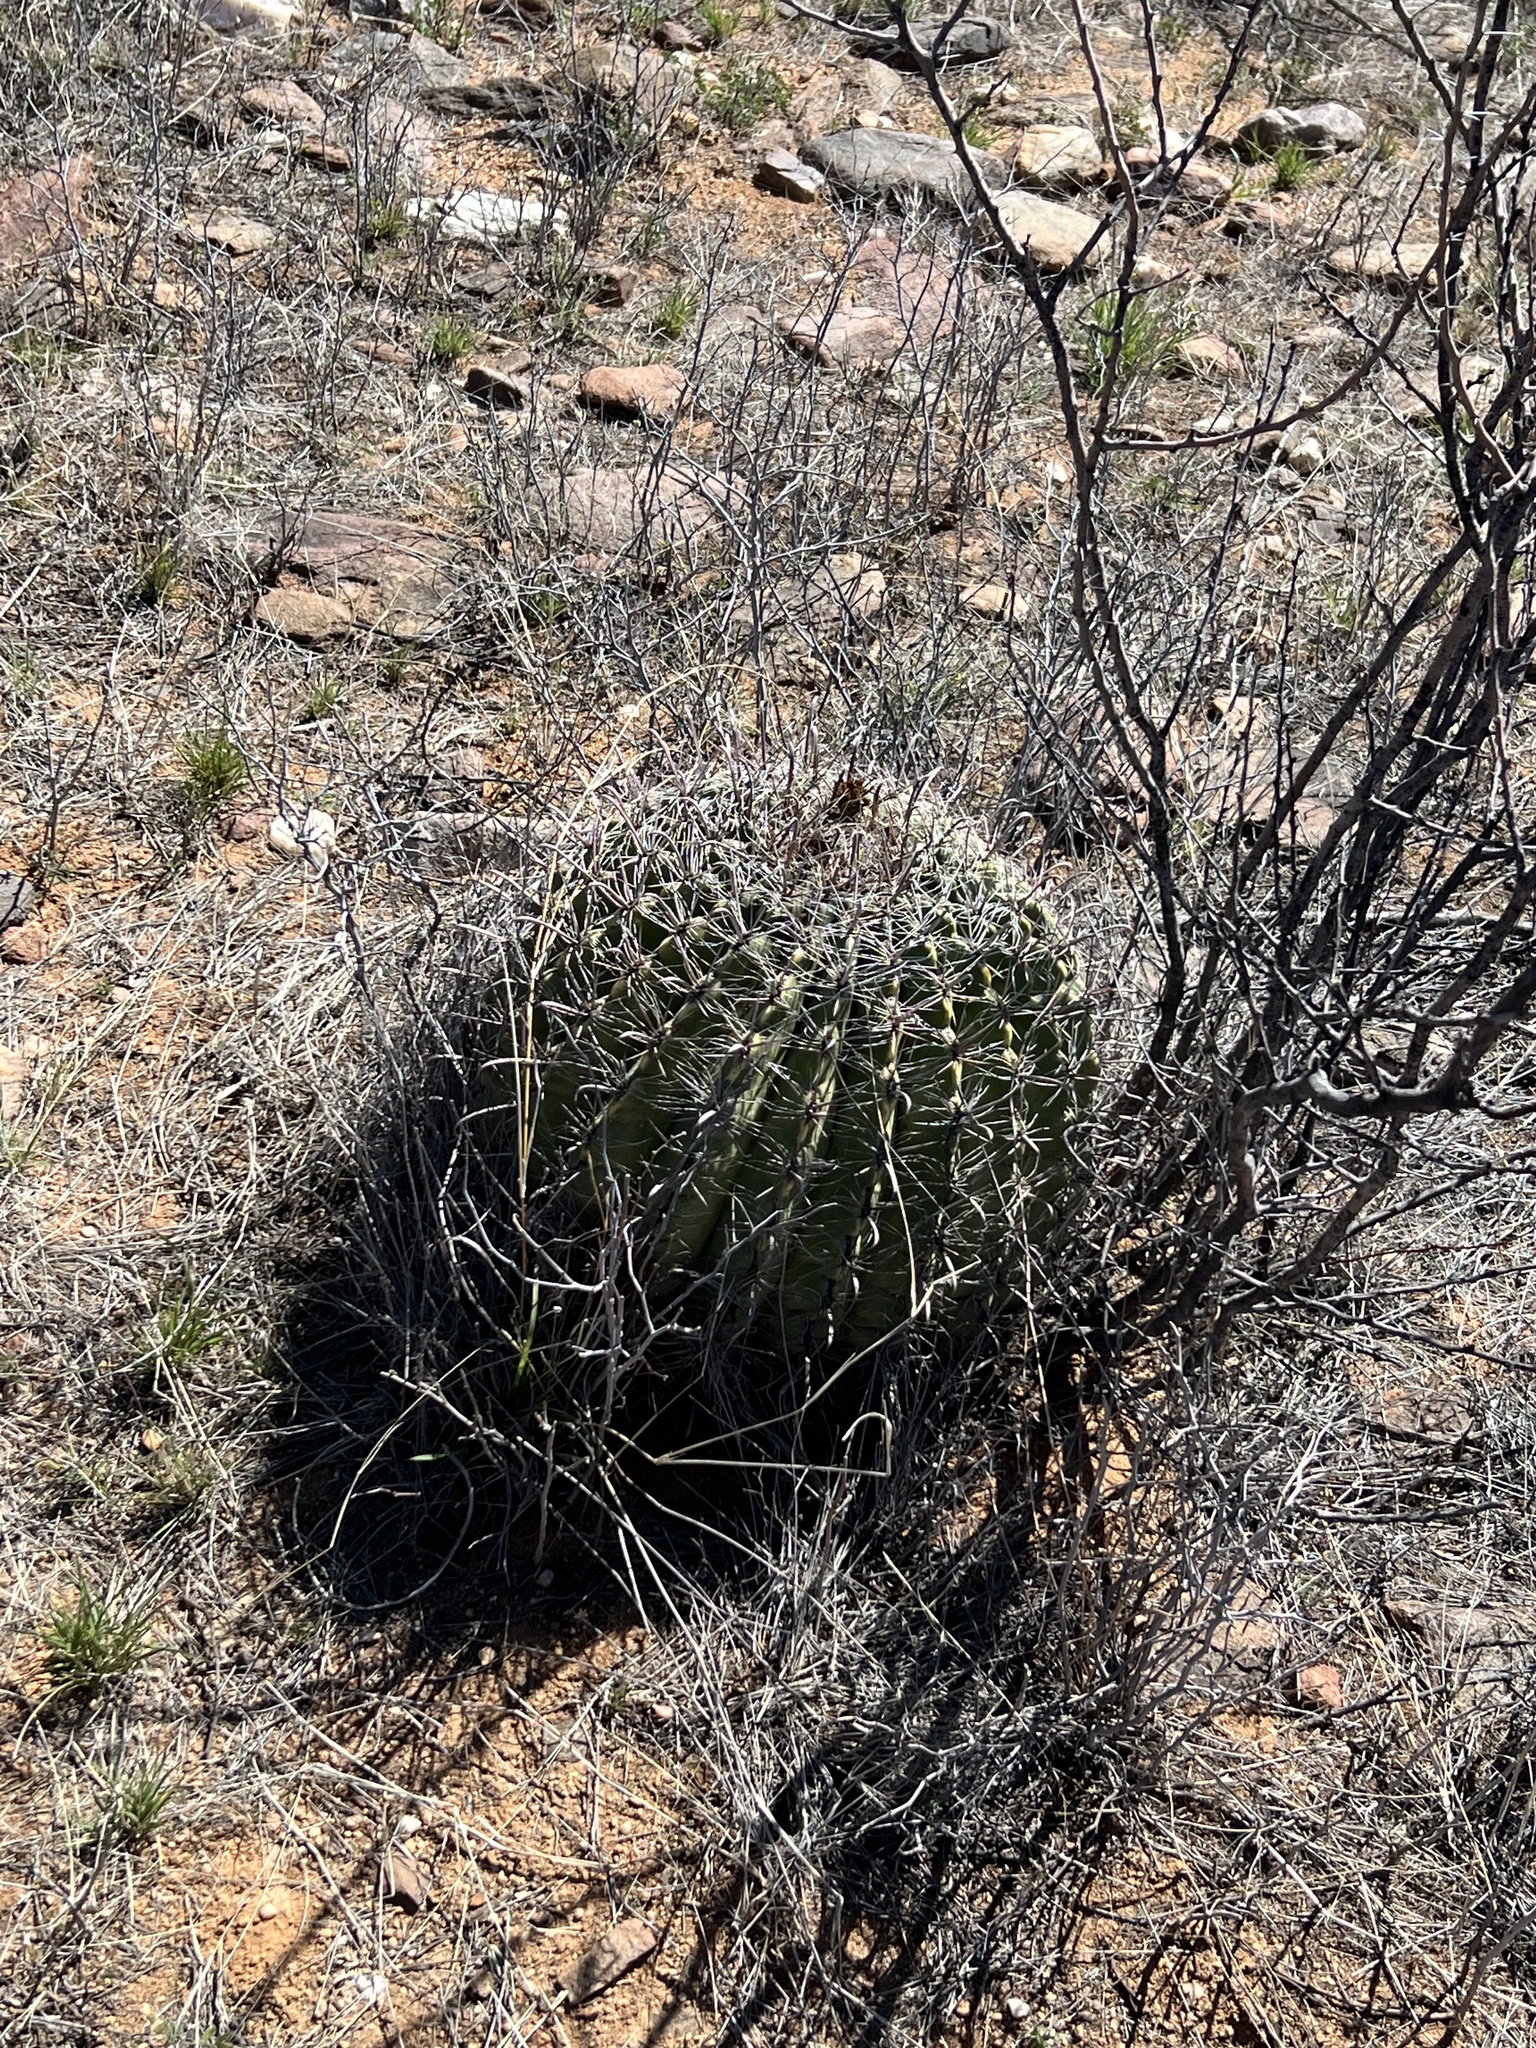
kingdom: Plantae
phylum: Tracheophyta
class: Magnoliopsida
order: Caryophyllales
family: Cactaceae
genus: Ferocactus
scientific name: Ferocactus wislizeni
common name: Candy barrel cactus
